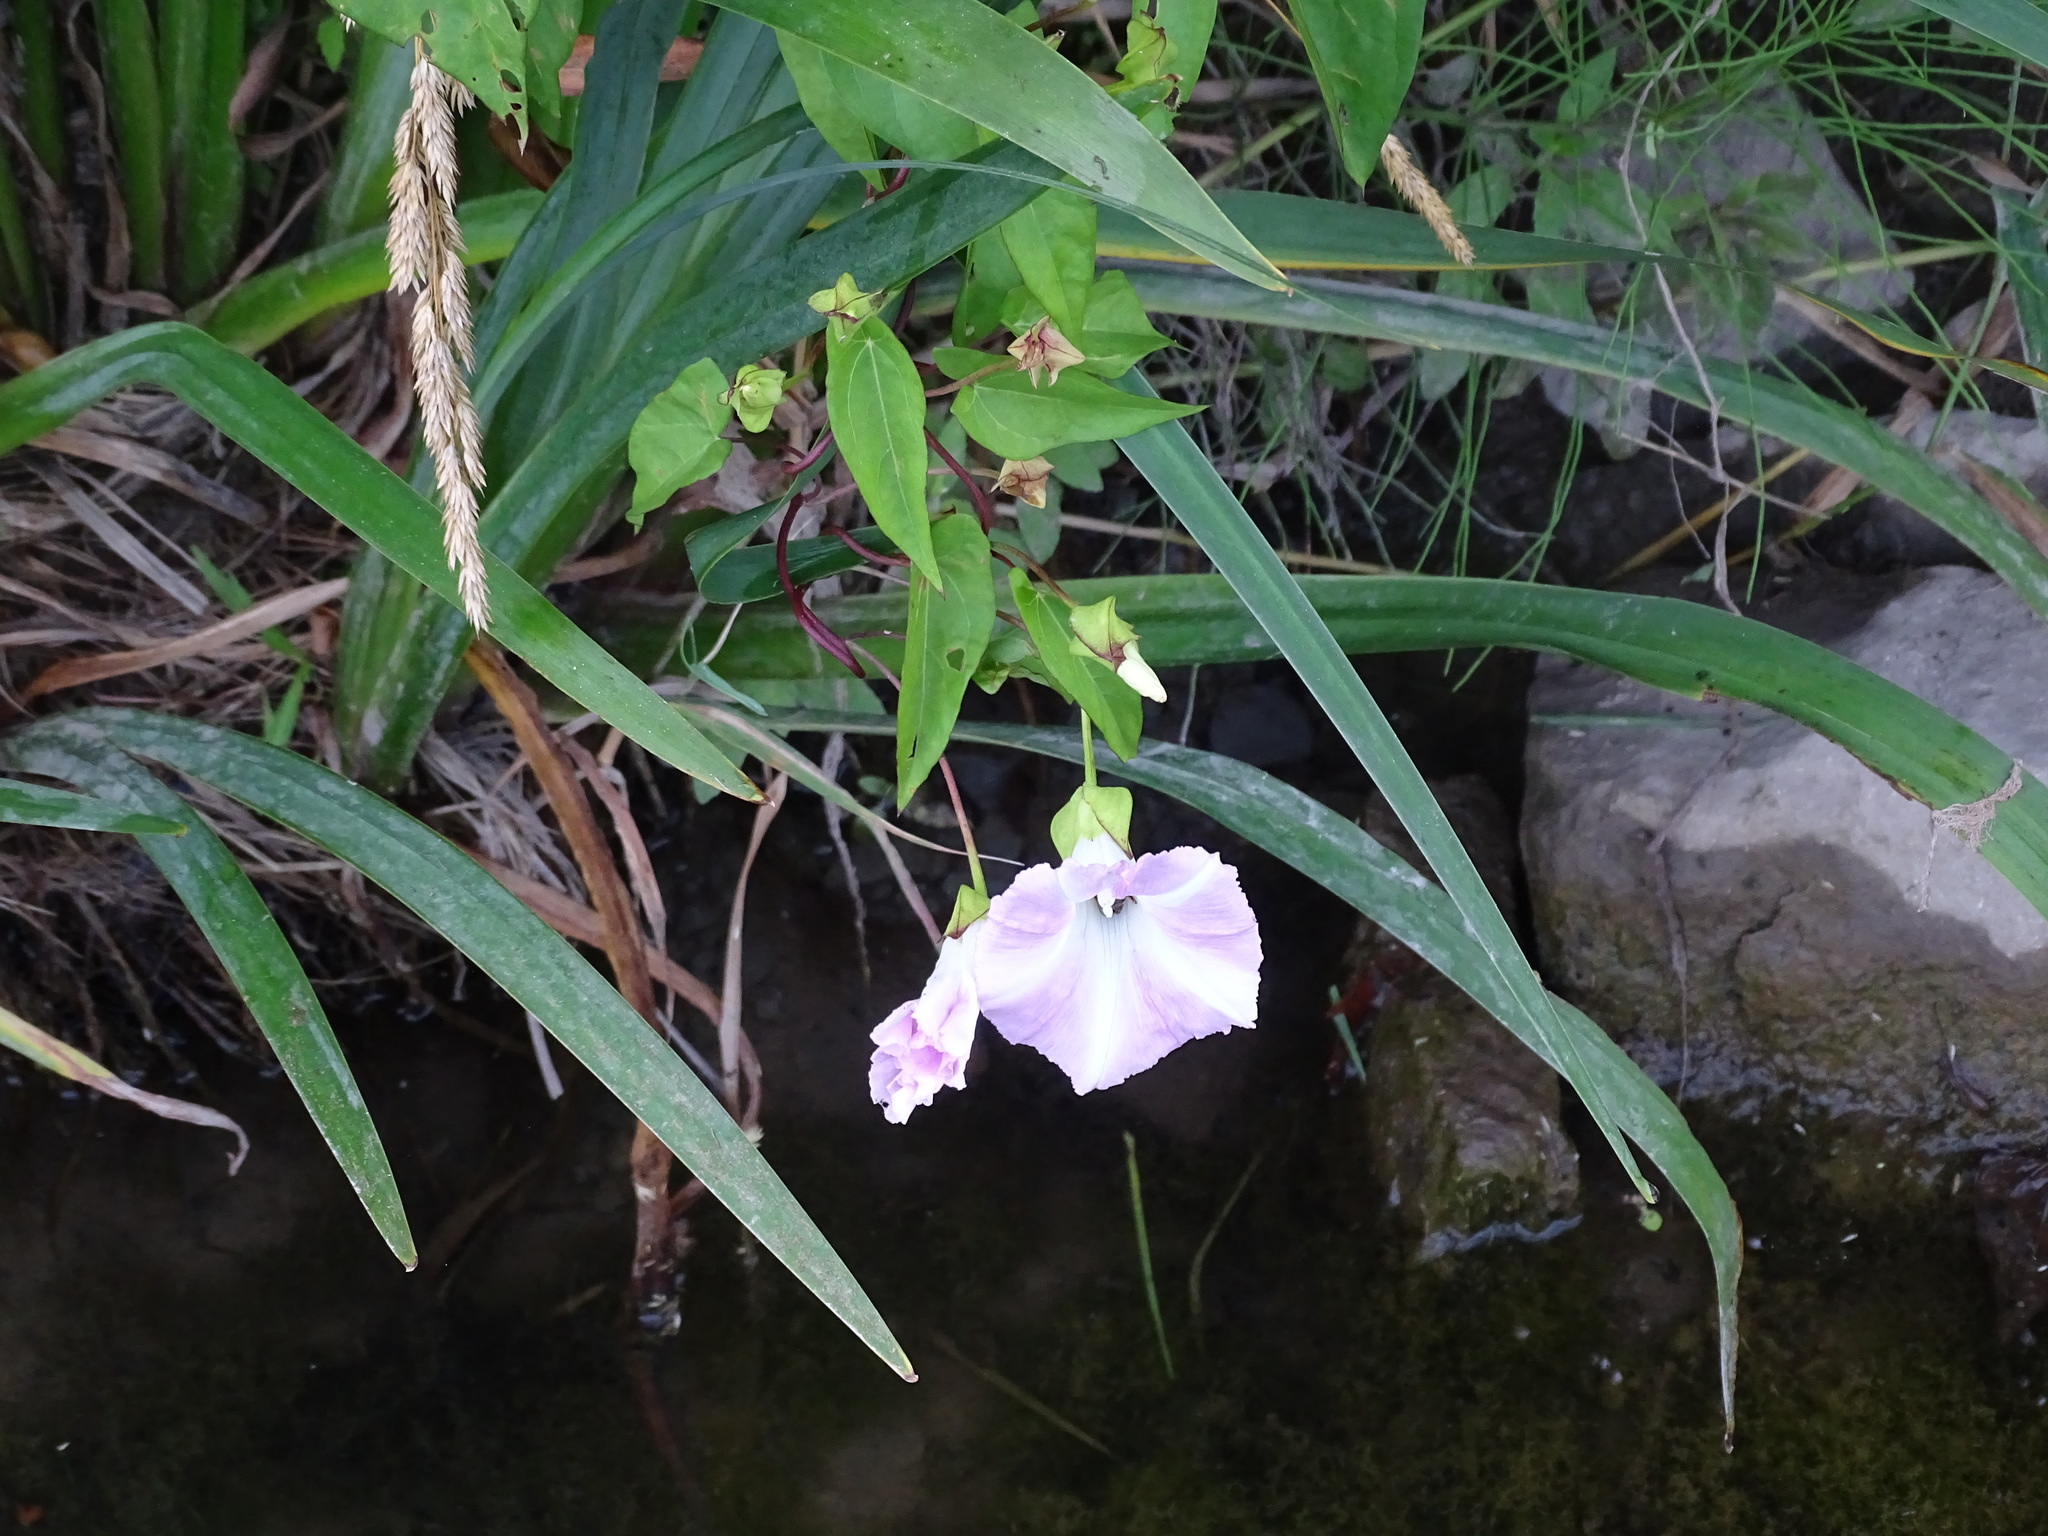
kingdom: Plantae
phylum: Tracheophyta
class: Magnoliopsida
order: Solanales
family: Convolvulaceae
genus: Calystegia
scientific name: Calystegia sepium
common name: Hedge bindweed
